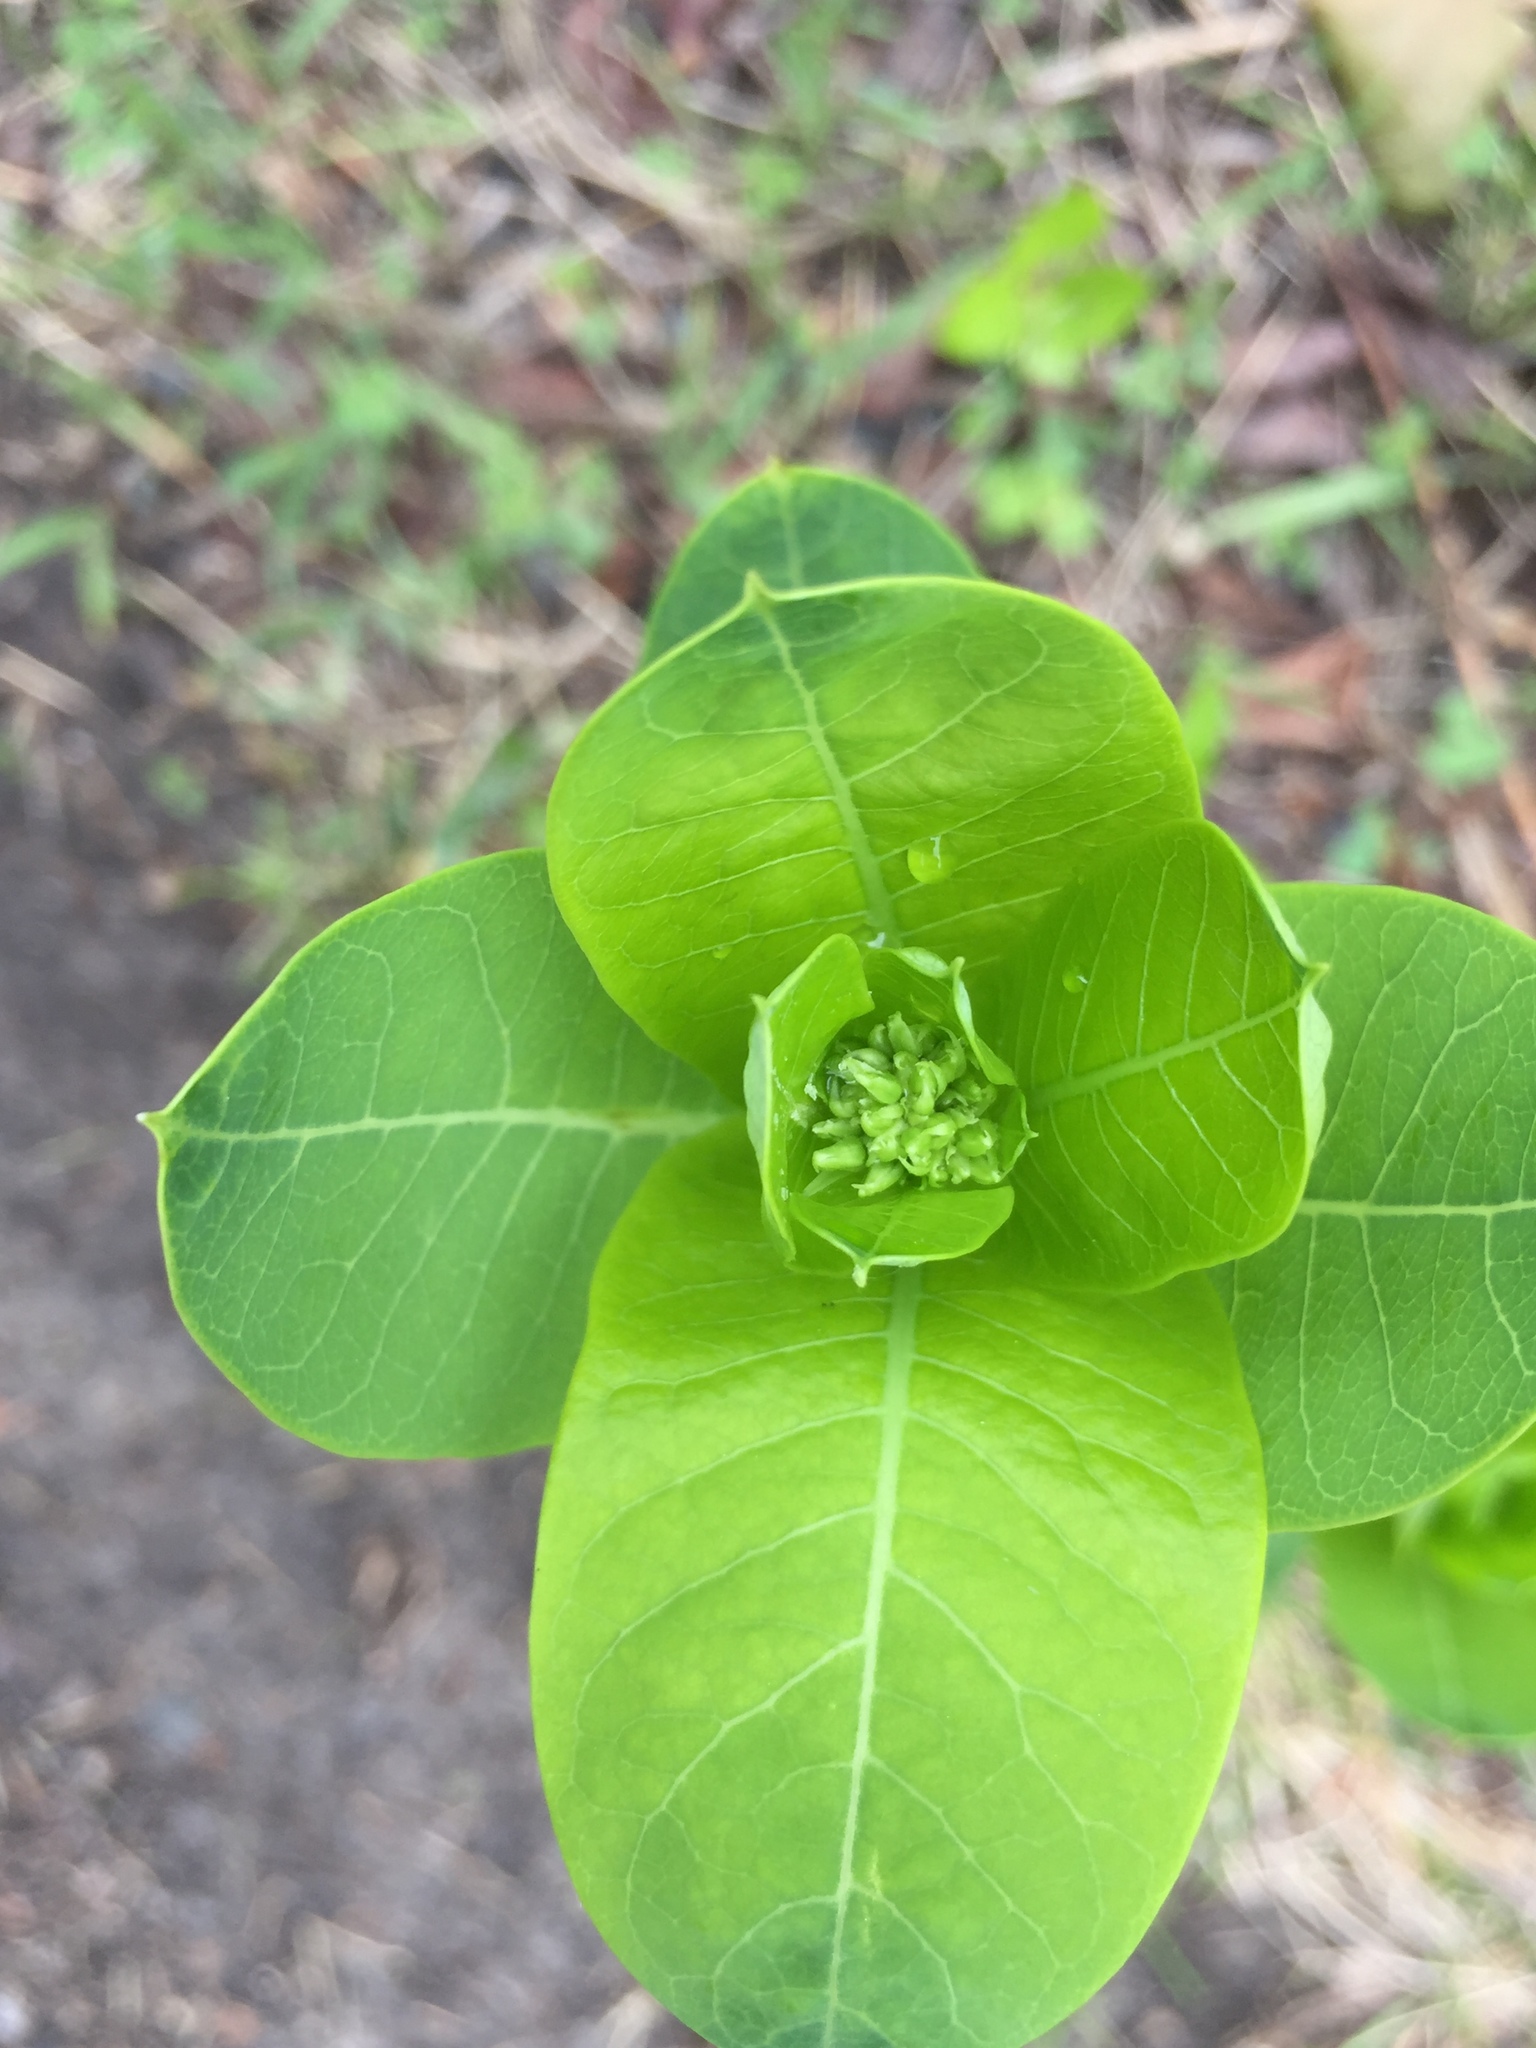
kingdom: Plantae
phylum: Tracheophyta
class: Magnoliopsida
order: Gentianales
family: Apocynaceae
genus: Apocynum
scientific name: Apocynum cannabinum
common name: Hemp dogbane
